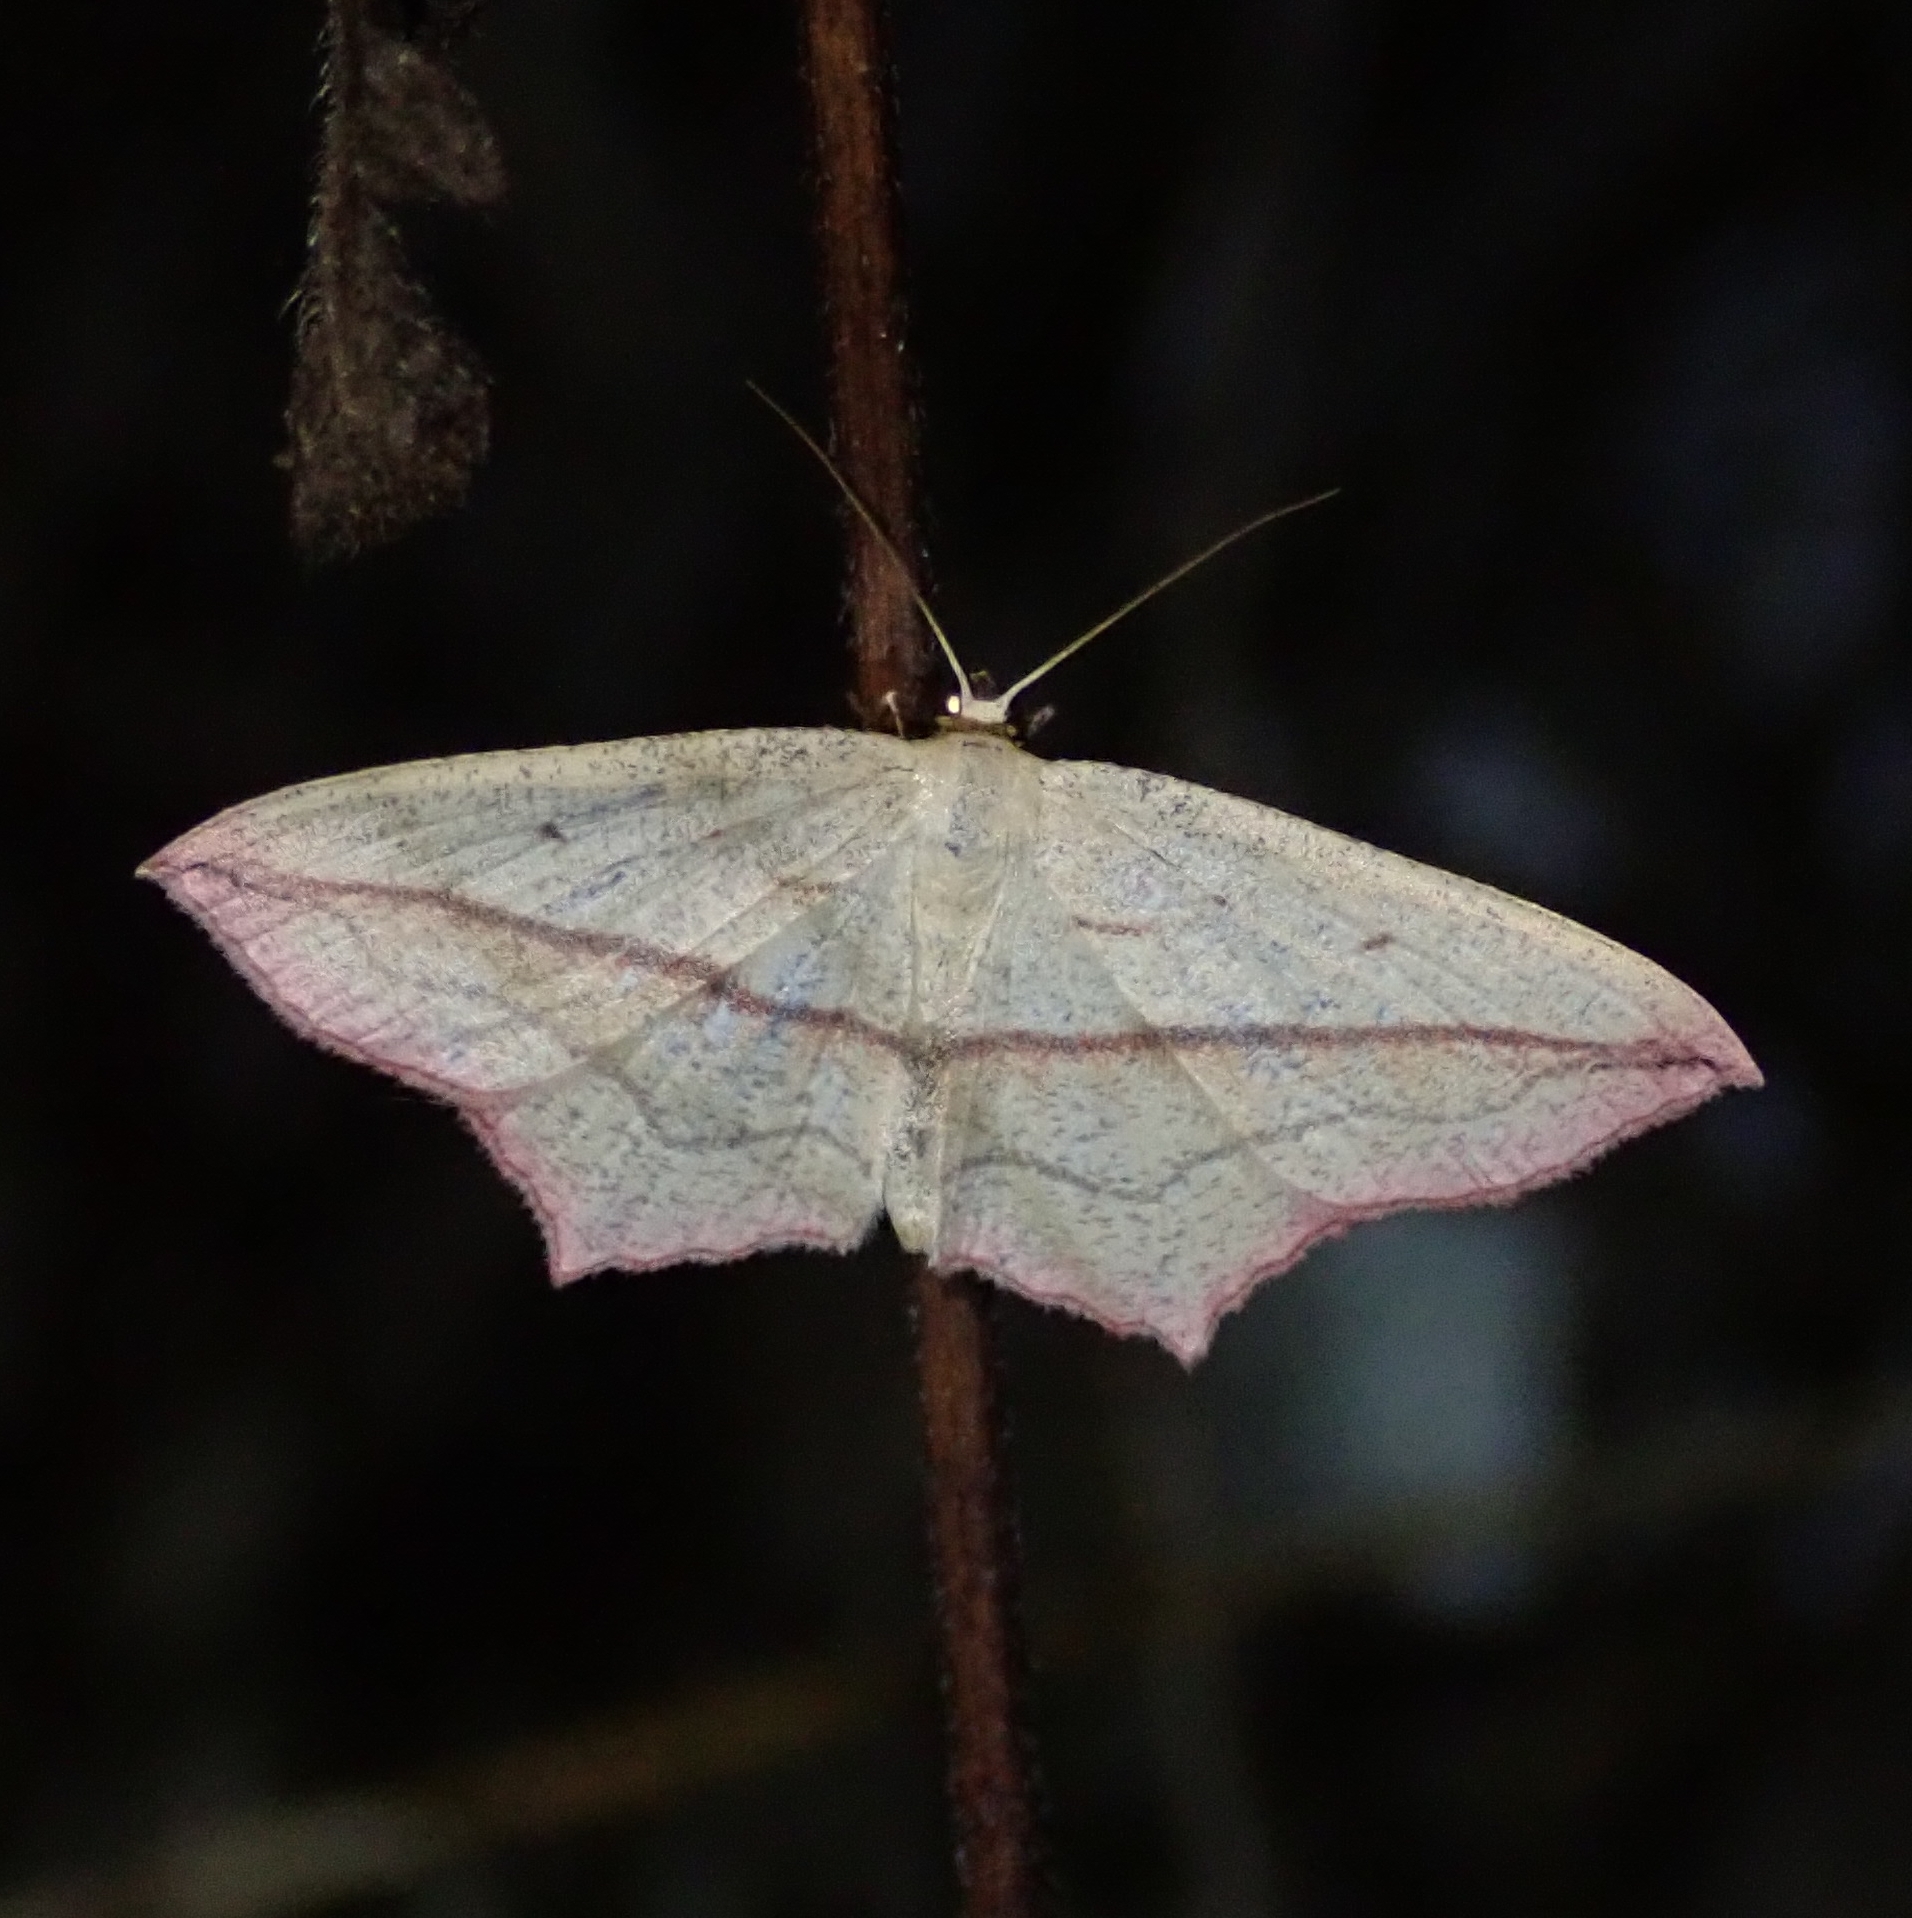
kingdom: Animalia
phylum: Arthropoda
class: Insecta
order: Lepidoptera
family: Geometridae
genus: Timandra
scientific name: Timandra comae
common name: Blood-vein
